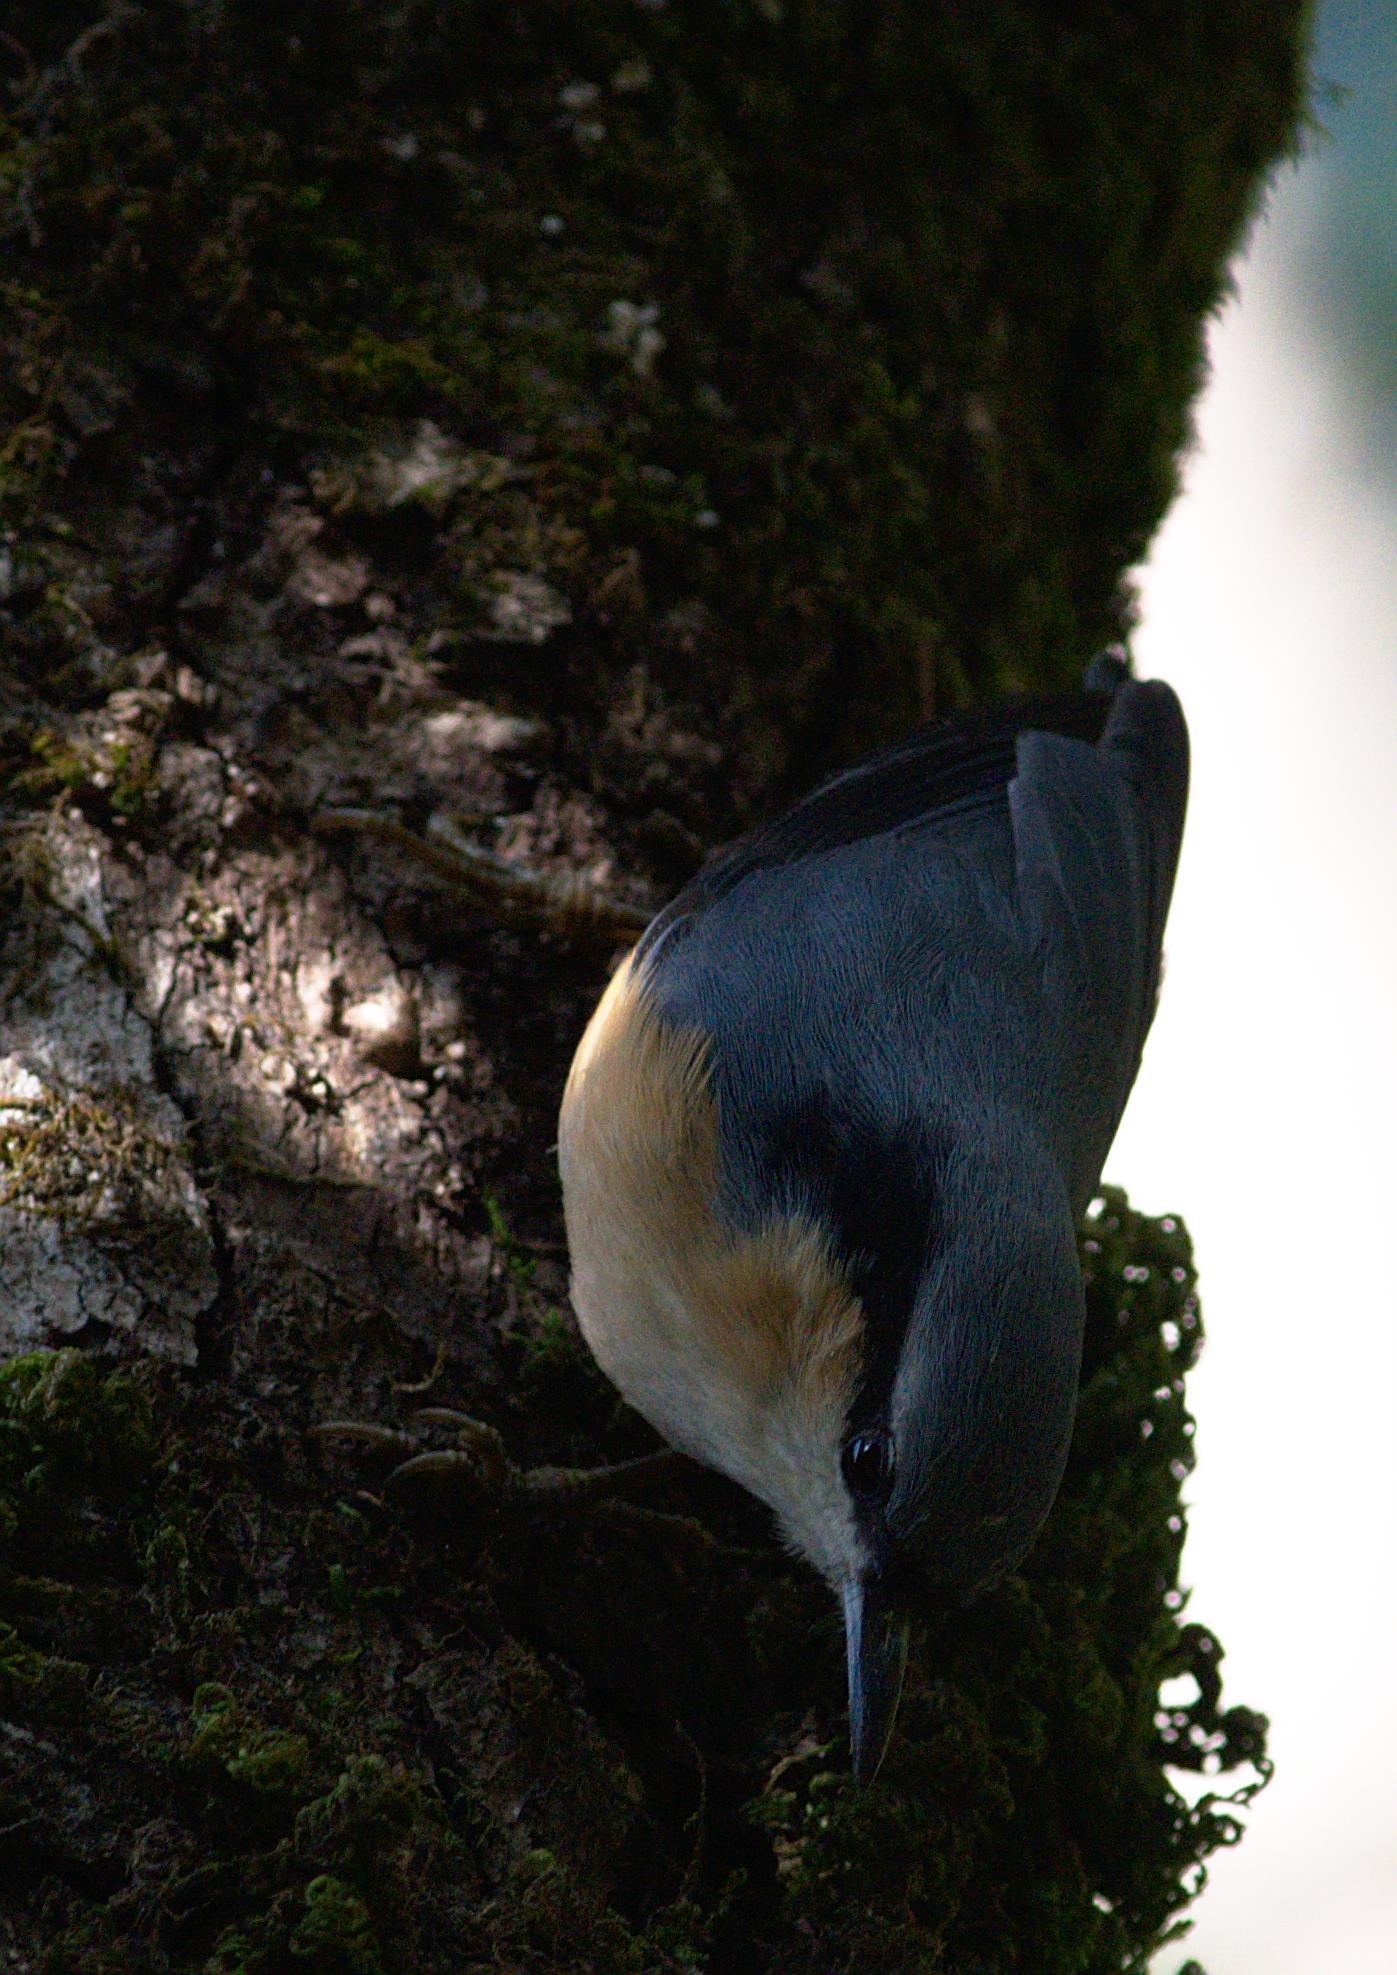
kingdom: Animalia
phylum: Chordata
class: Aves
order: Passeriformes
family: Sittidae
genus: Sitta
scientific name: Sitta himalayensis
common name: White-tailed nuthatch
